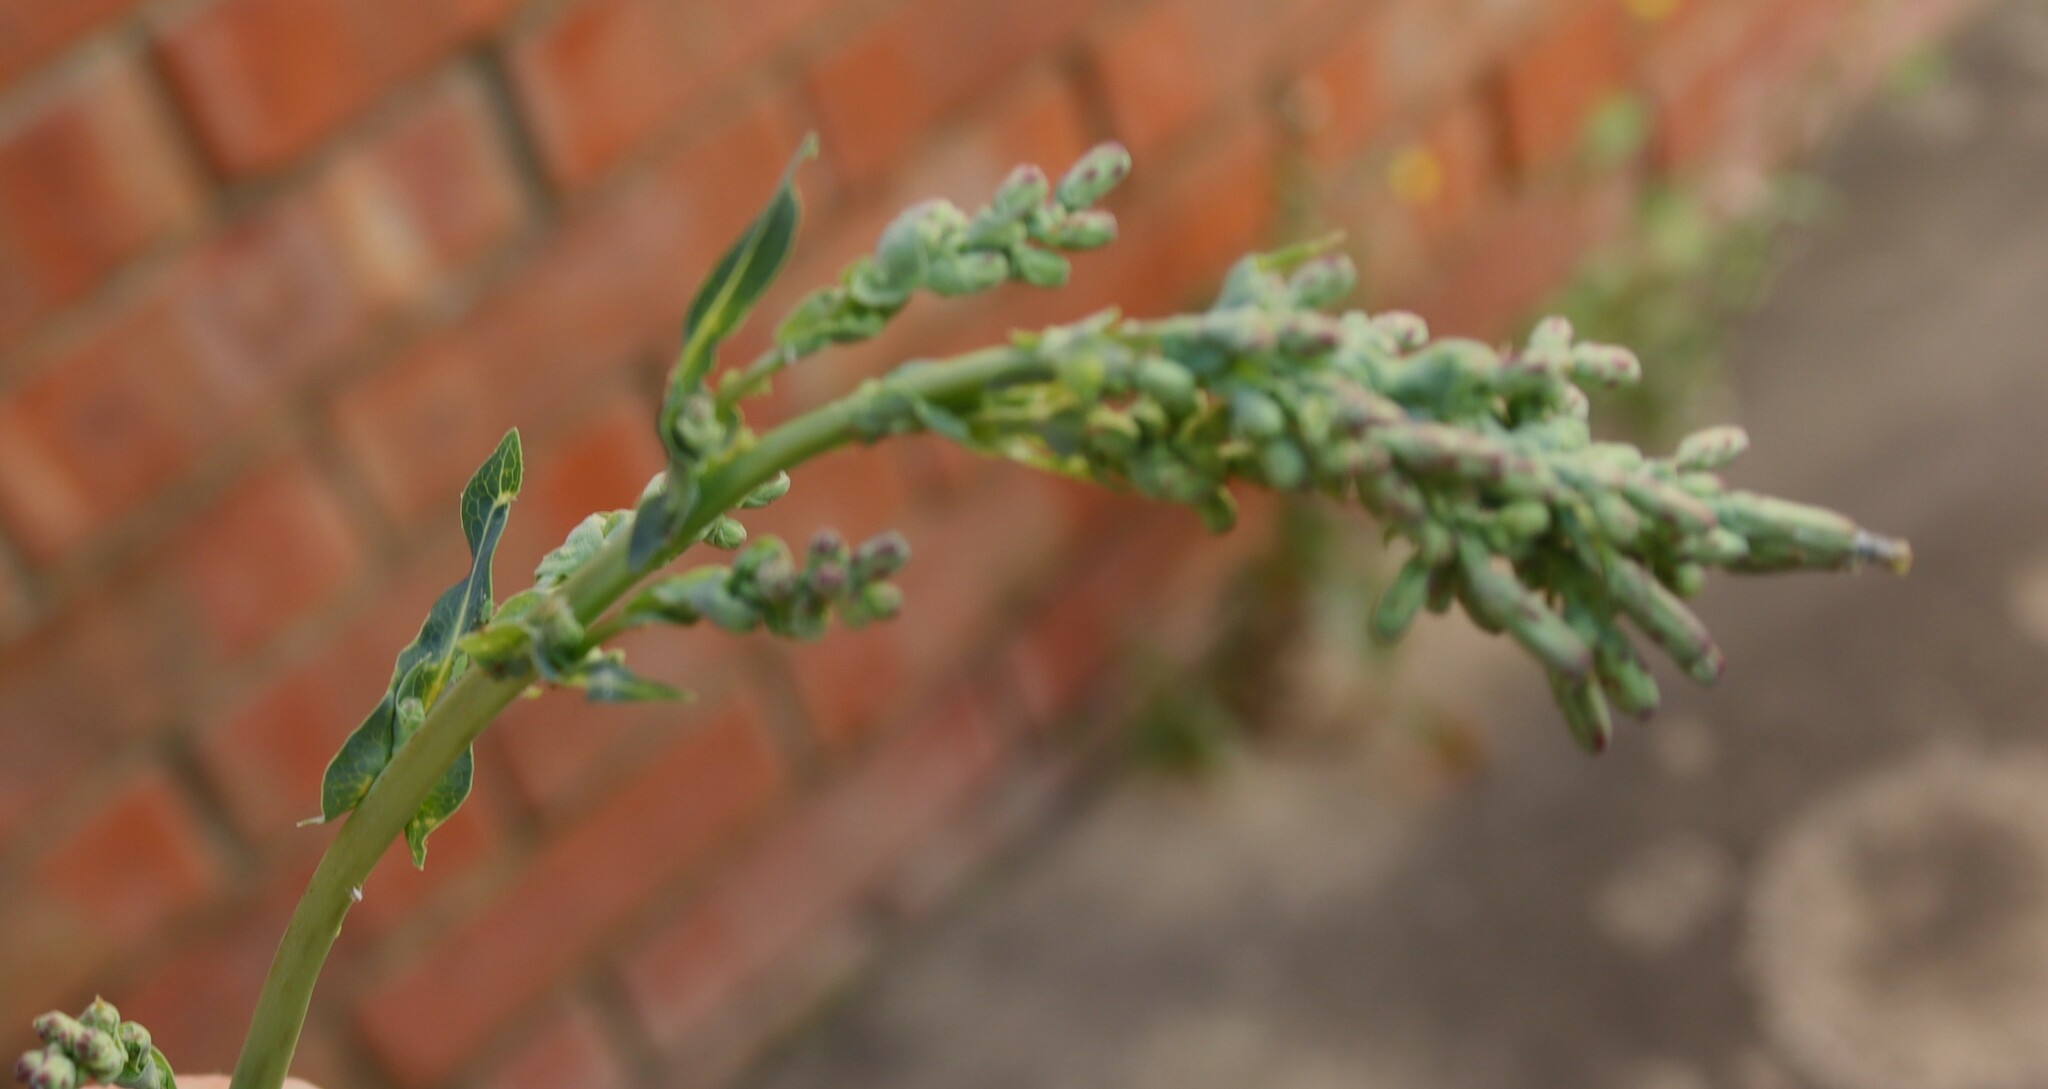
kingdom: Plantae
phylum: Tracheophyta
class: Magnoliopsida
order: Asterales
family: Asteraceae
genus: Lactuca
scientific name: Lactuca serriola
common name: Prickly lettuce
